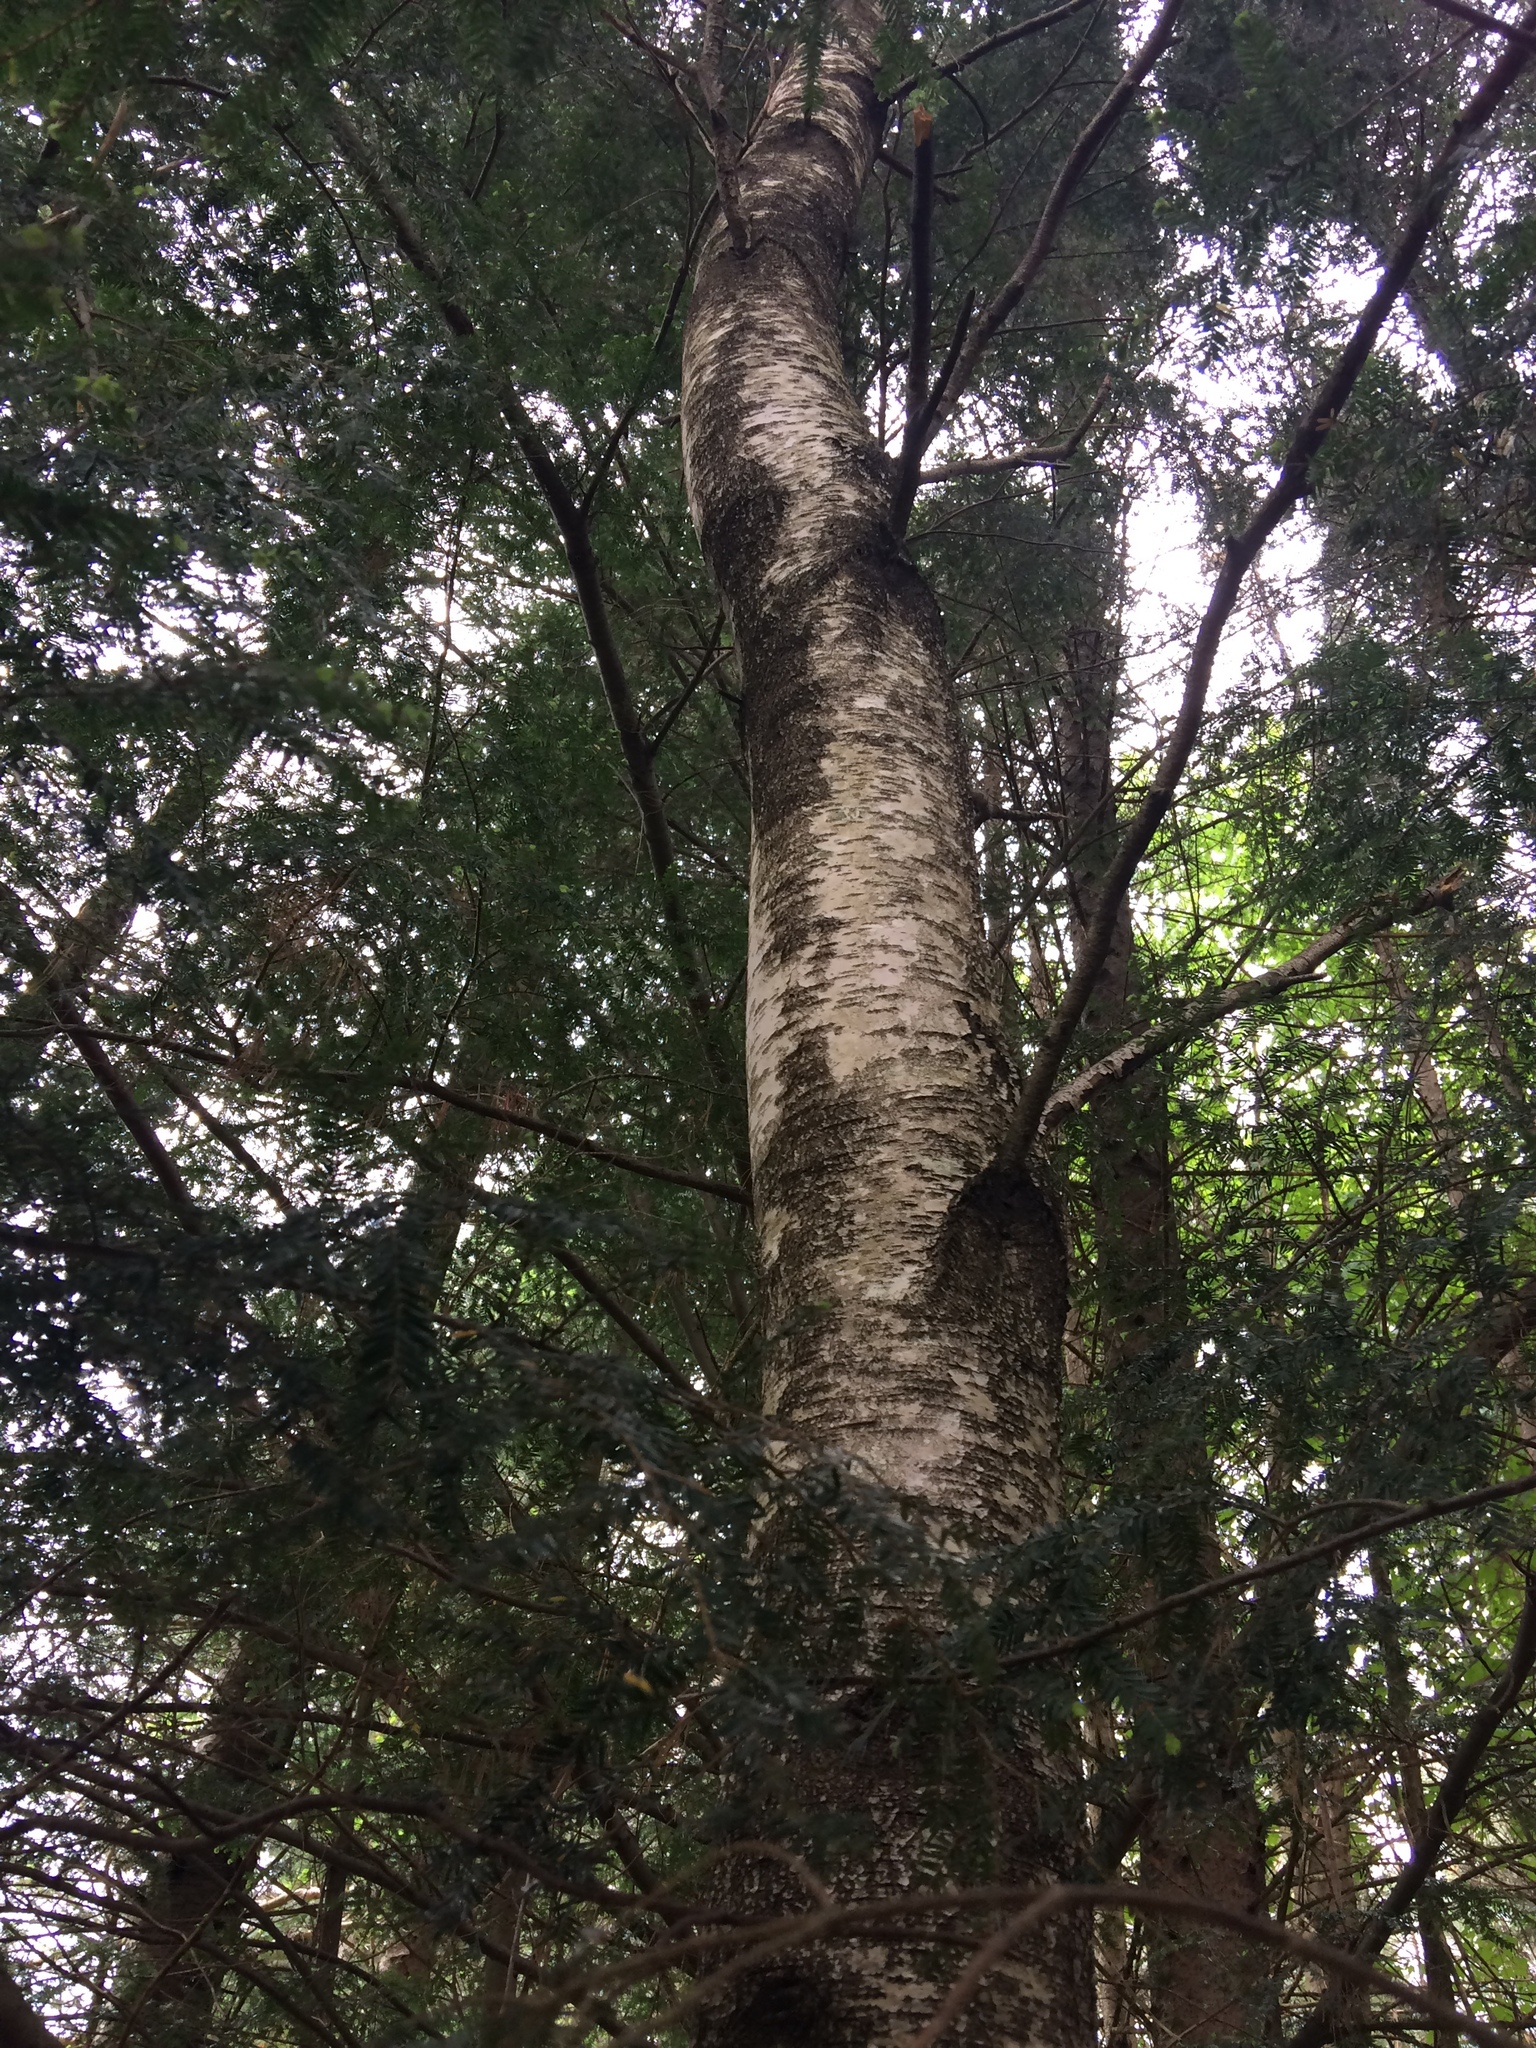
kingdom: Plantae
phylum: Tracheophyta
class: Magnoliopsida
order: Fagales
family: Betulaceae
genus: Betula
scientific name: Betula populifolia
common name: Fire birch
